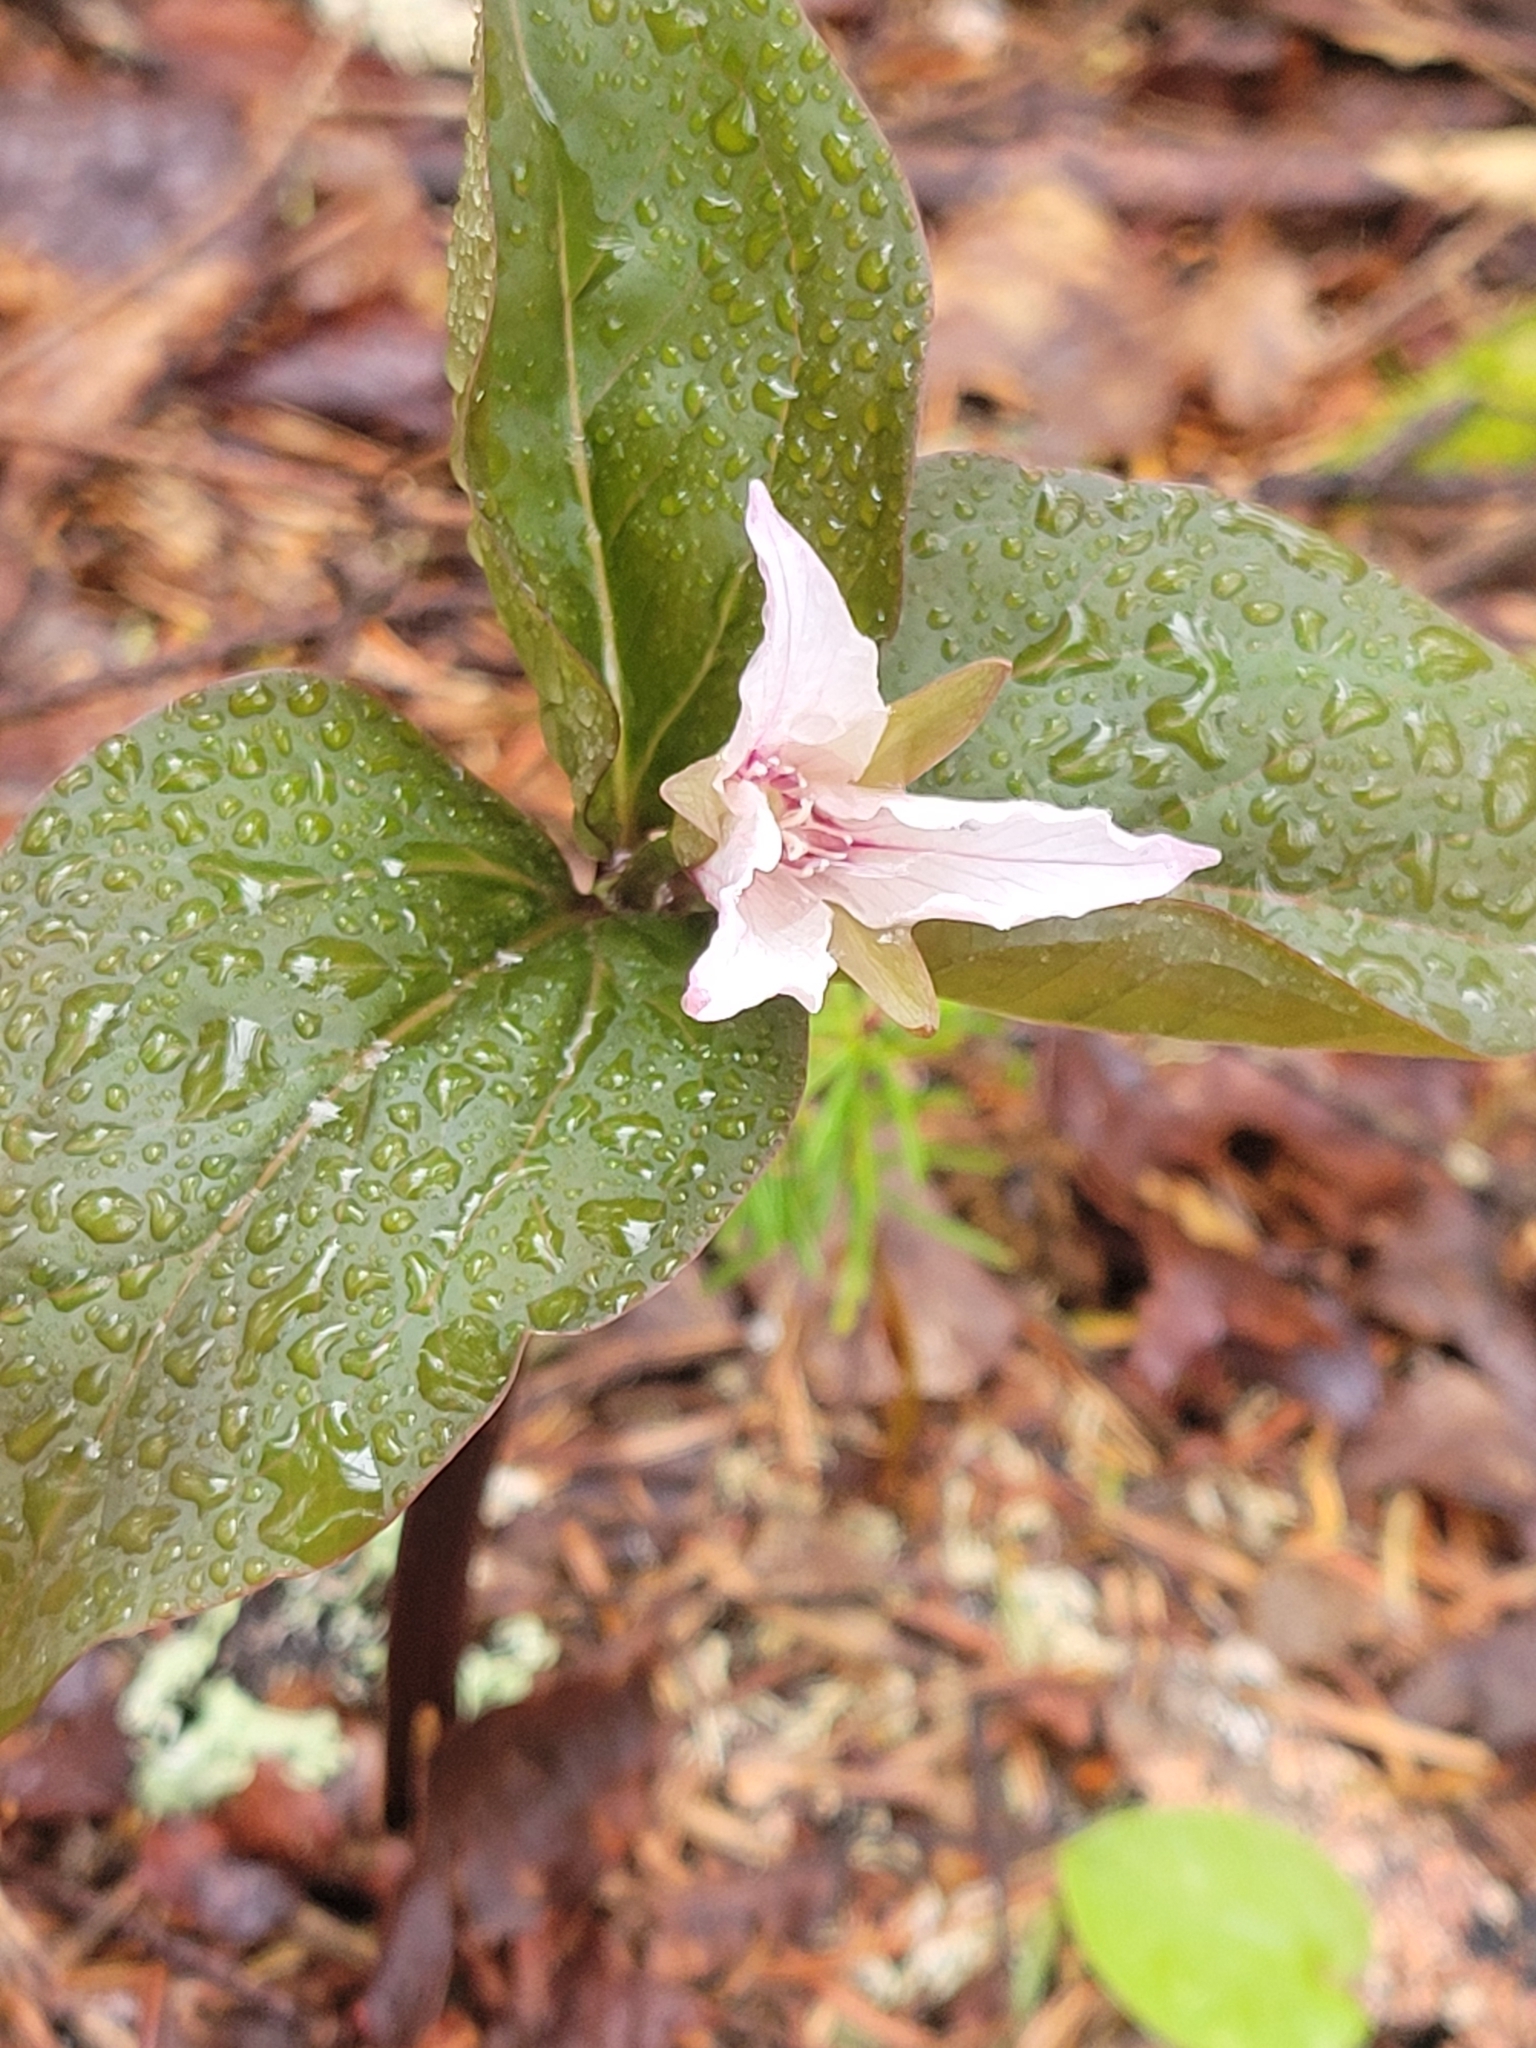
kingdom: Plantae
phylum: Tracheophyta
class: Liliopsida
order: Liliales
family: Melanthiaceae
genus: Trillium
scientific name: Trillium undulatum
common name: Paint trillium
